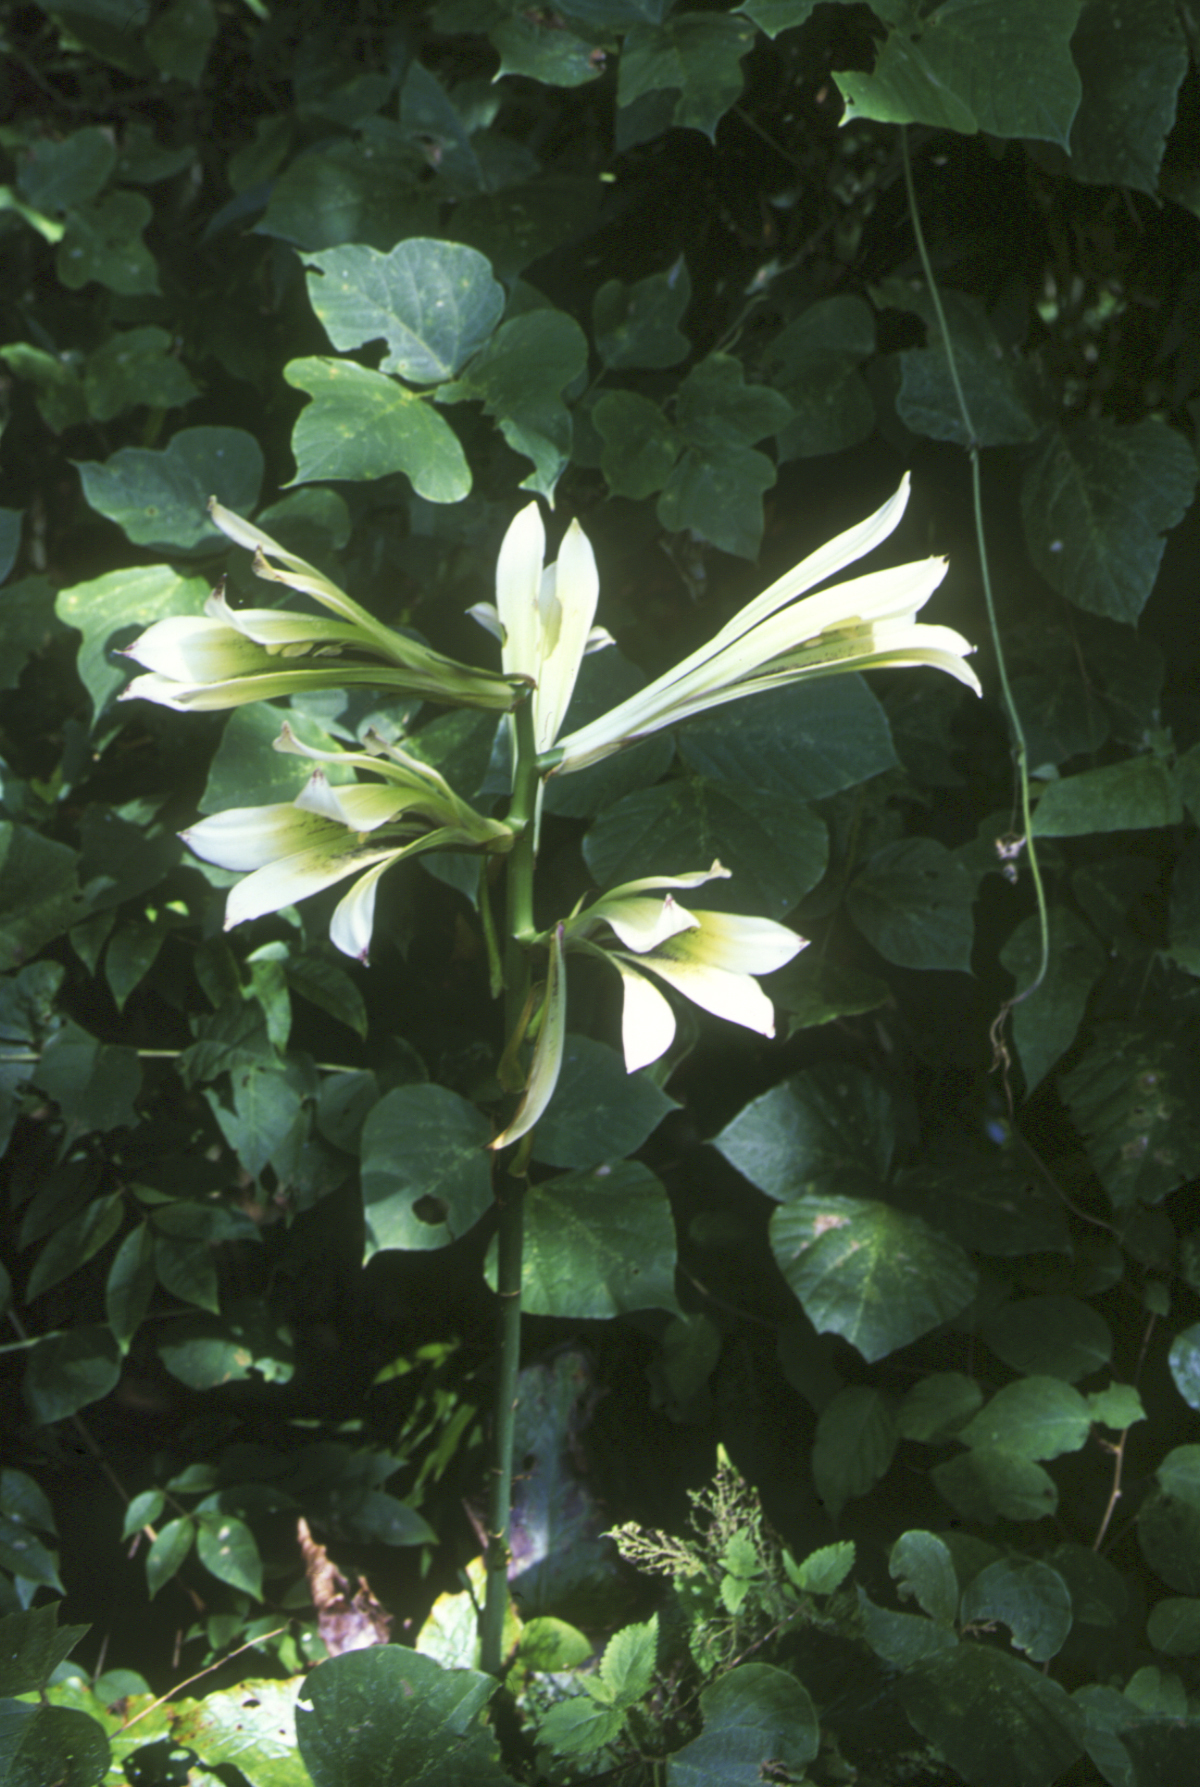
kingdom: Plantae
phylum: Tracheophyta
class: Liliopsida
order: Liliales
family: Liliaceae
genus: Cardiocrinum
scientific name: Cardiocrinum cordatum
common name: Lily
